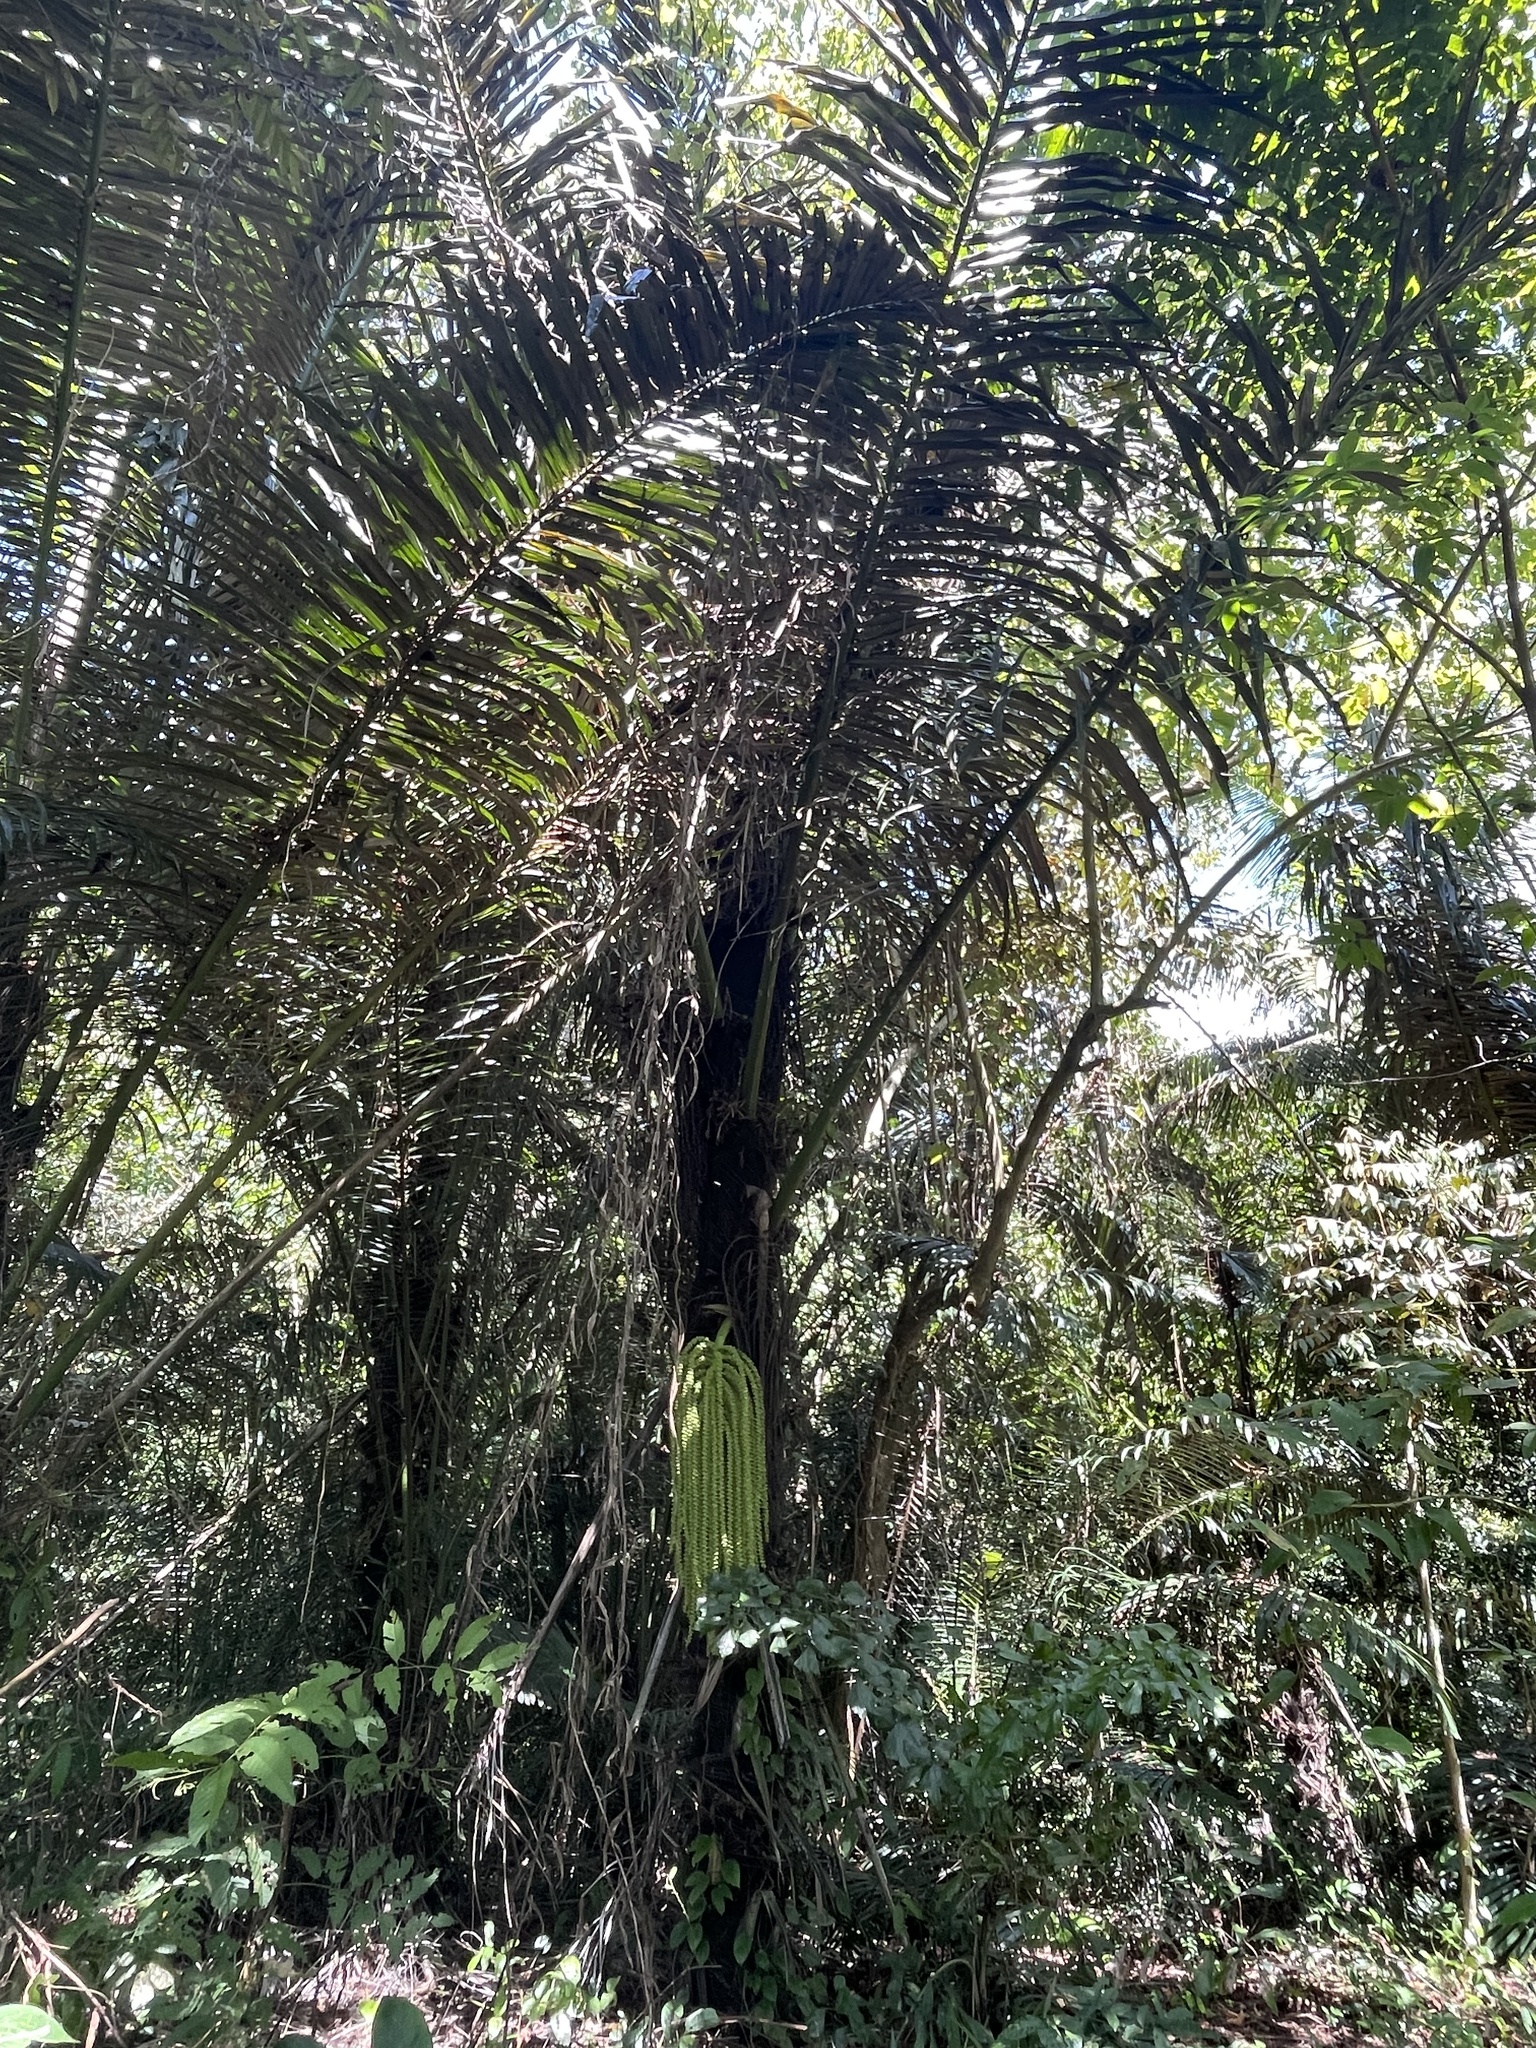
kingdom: Plantae
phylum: Tracheophyta
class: Liliopsida
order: Arecales
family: Arecaceae
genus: Arenga
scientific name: Arenga pinnata
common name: Black-fiber palm
